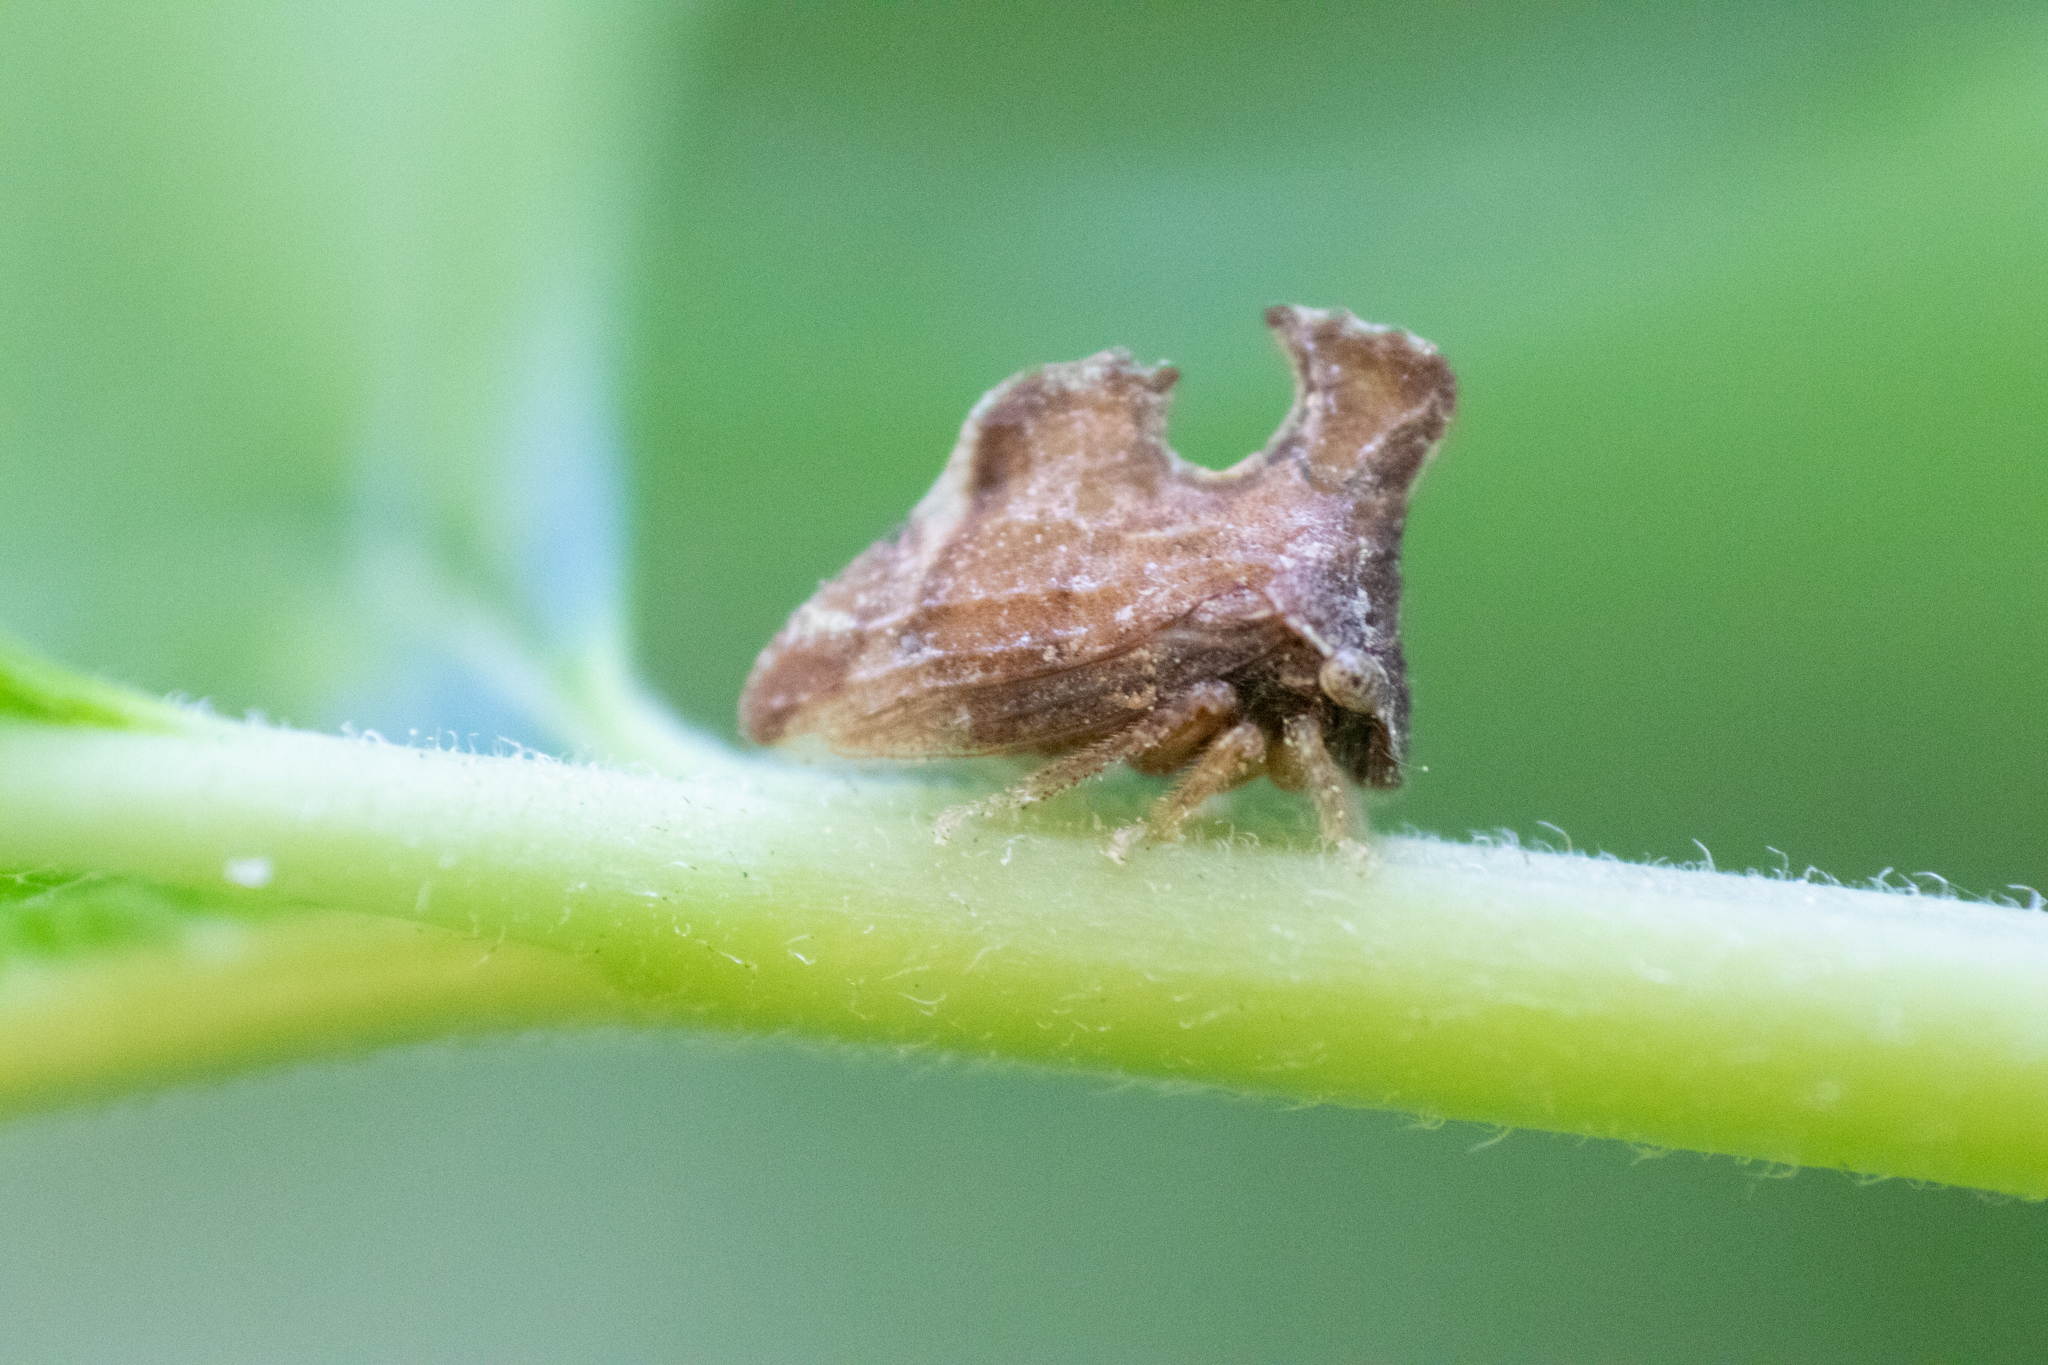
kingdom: Animalia
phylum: Arthropoda
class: Insecta
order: Hemiptera
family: Membracidae
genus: Entylia
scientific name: Entylia carinata
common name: Keeled treehopper
